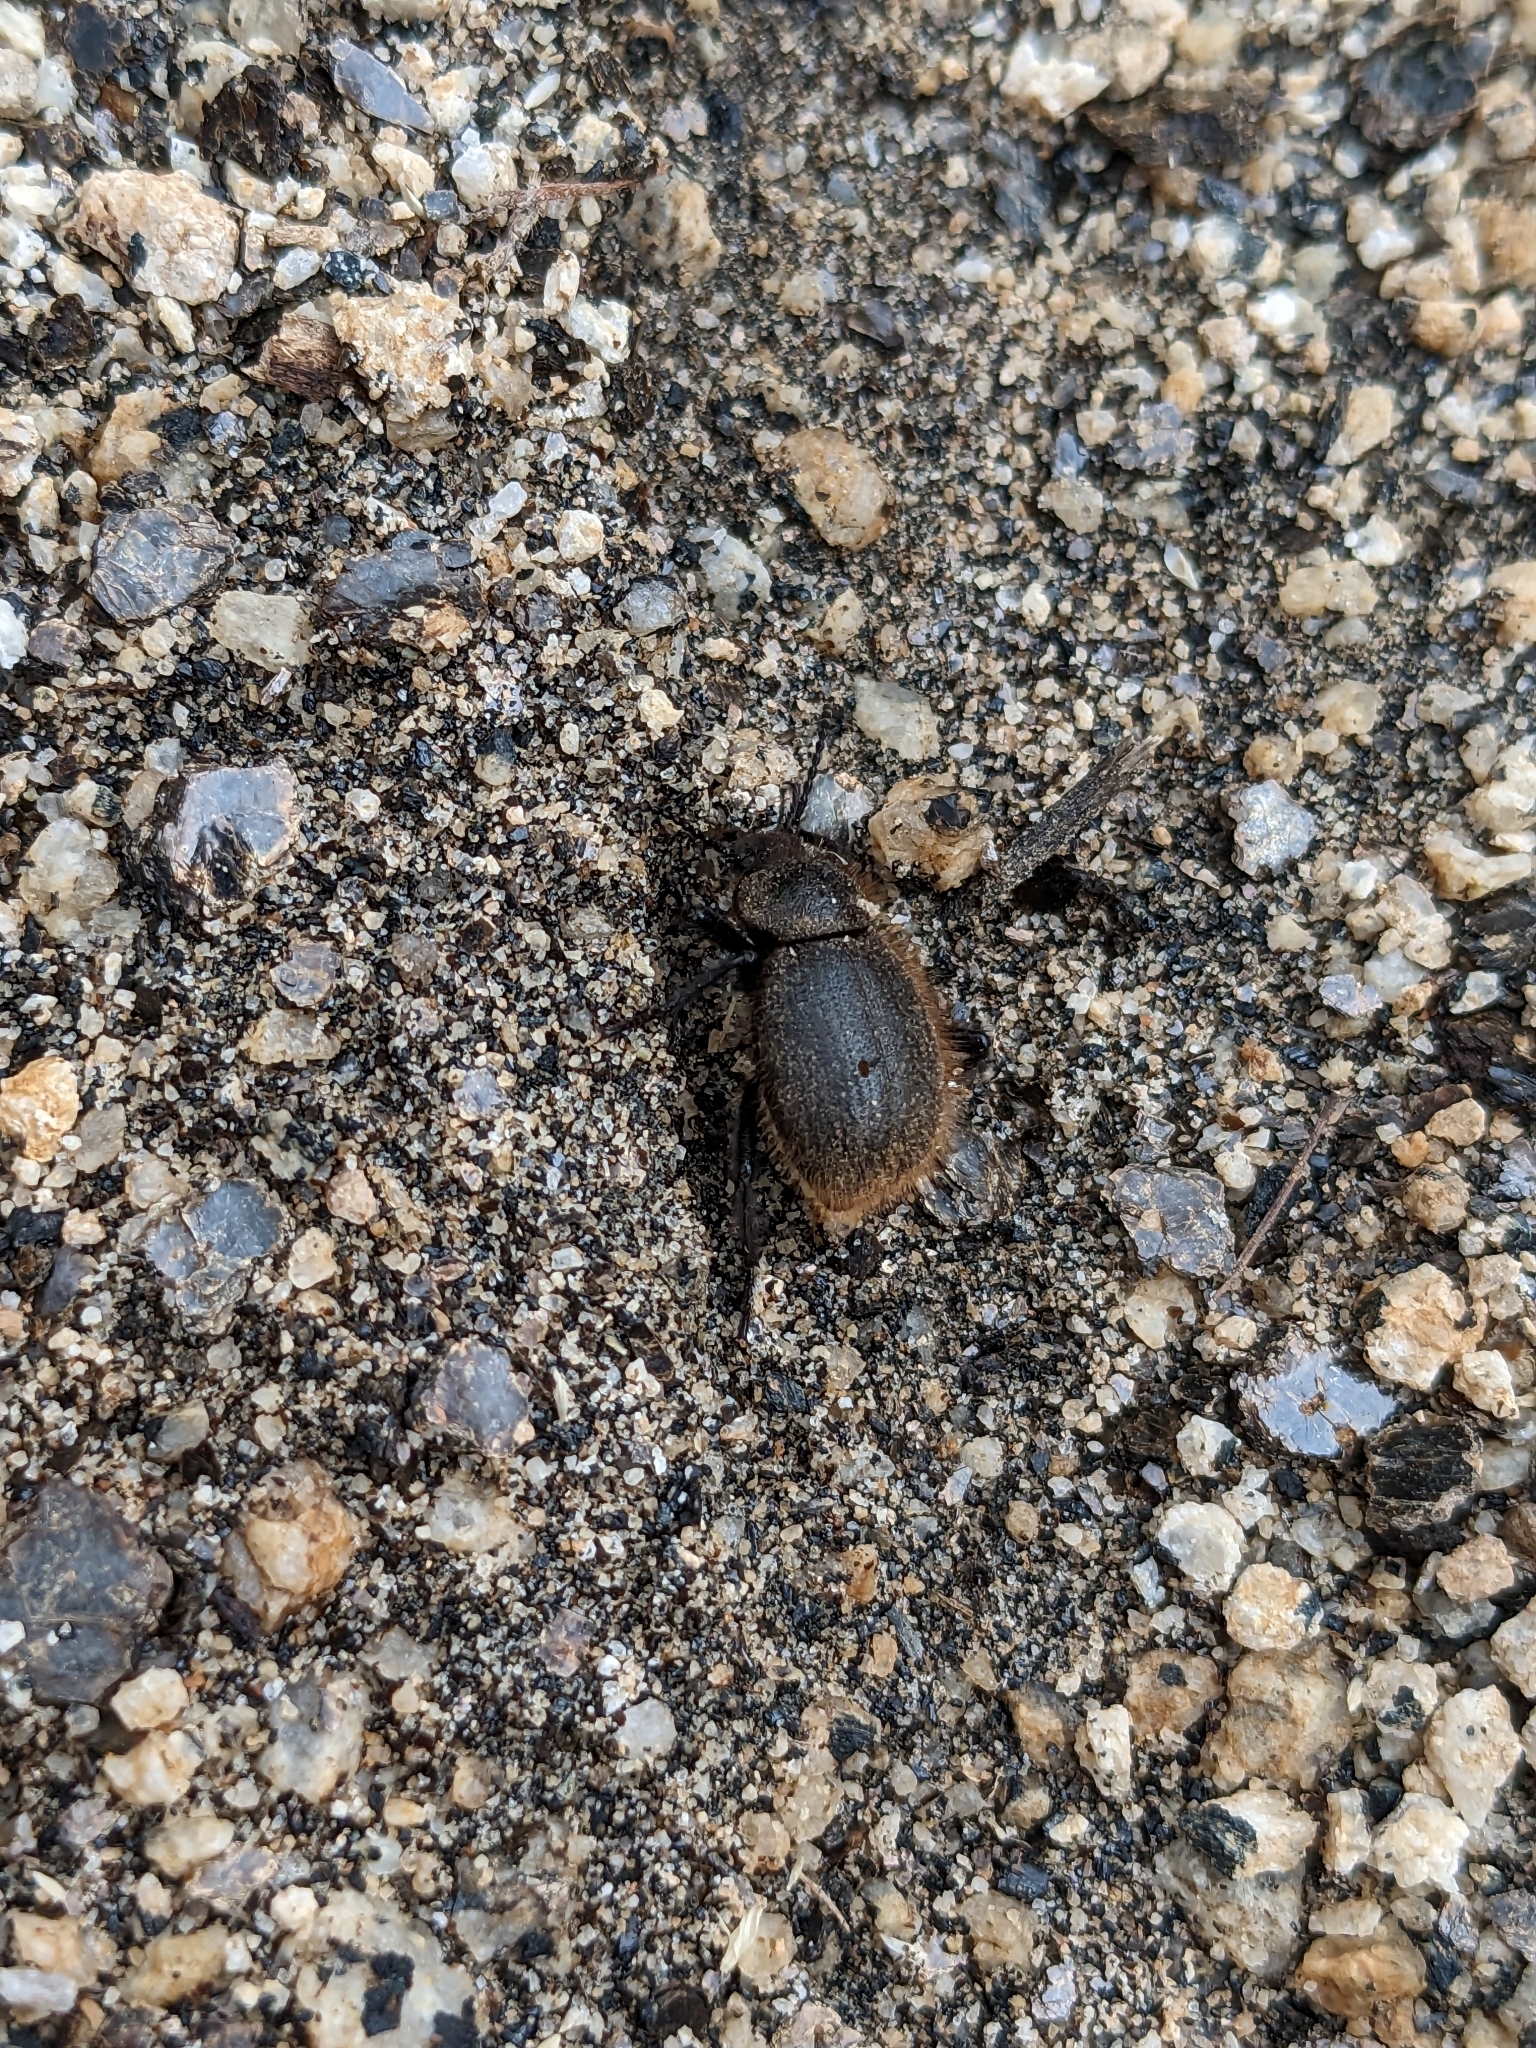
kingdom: Animalia
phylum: Arthropoda
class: Insecta
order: Coleoptera
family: Tenebrionidae
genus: Eleodes
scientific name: Eleodes osculans
